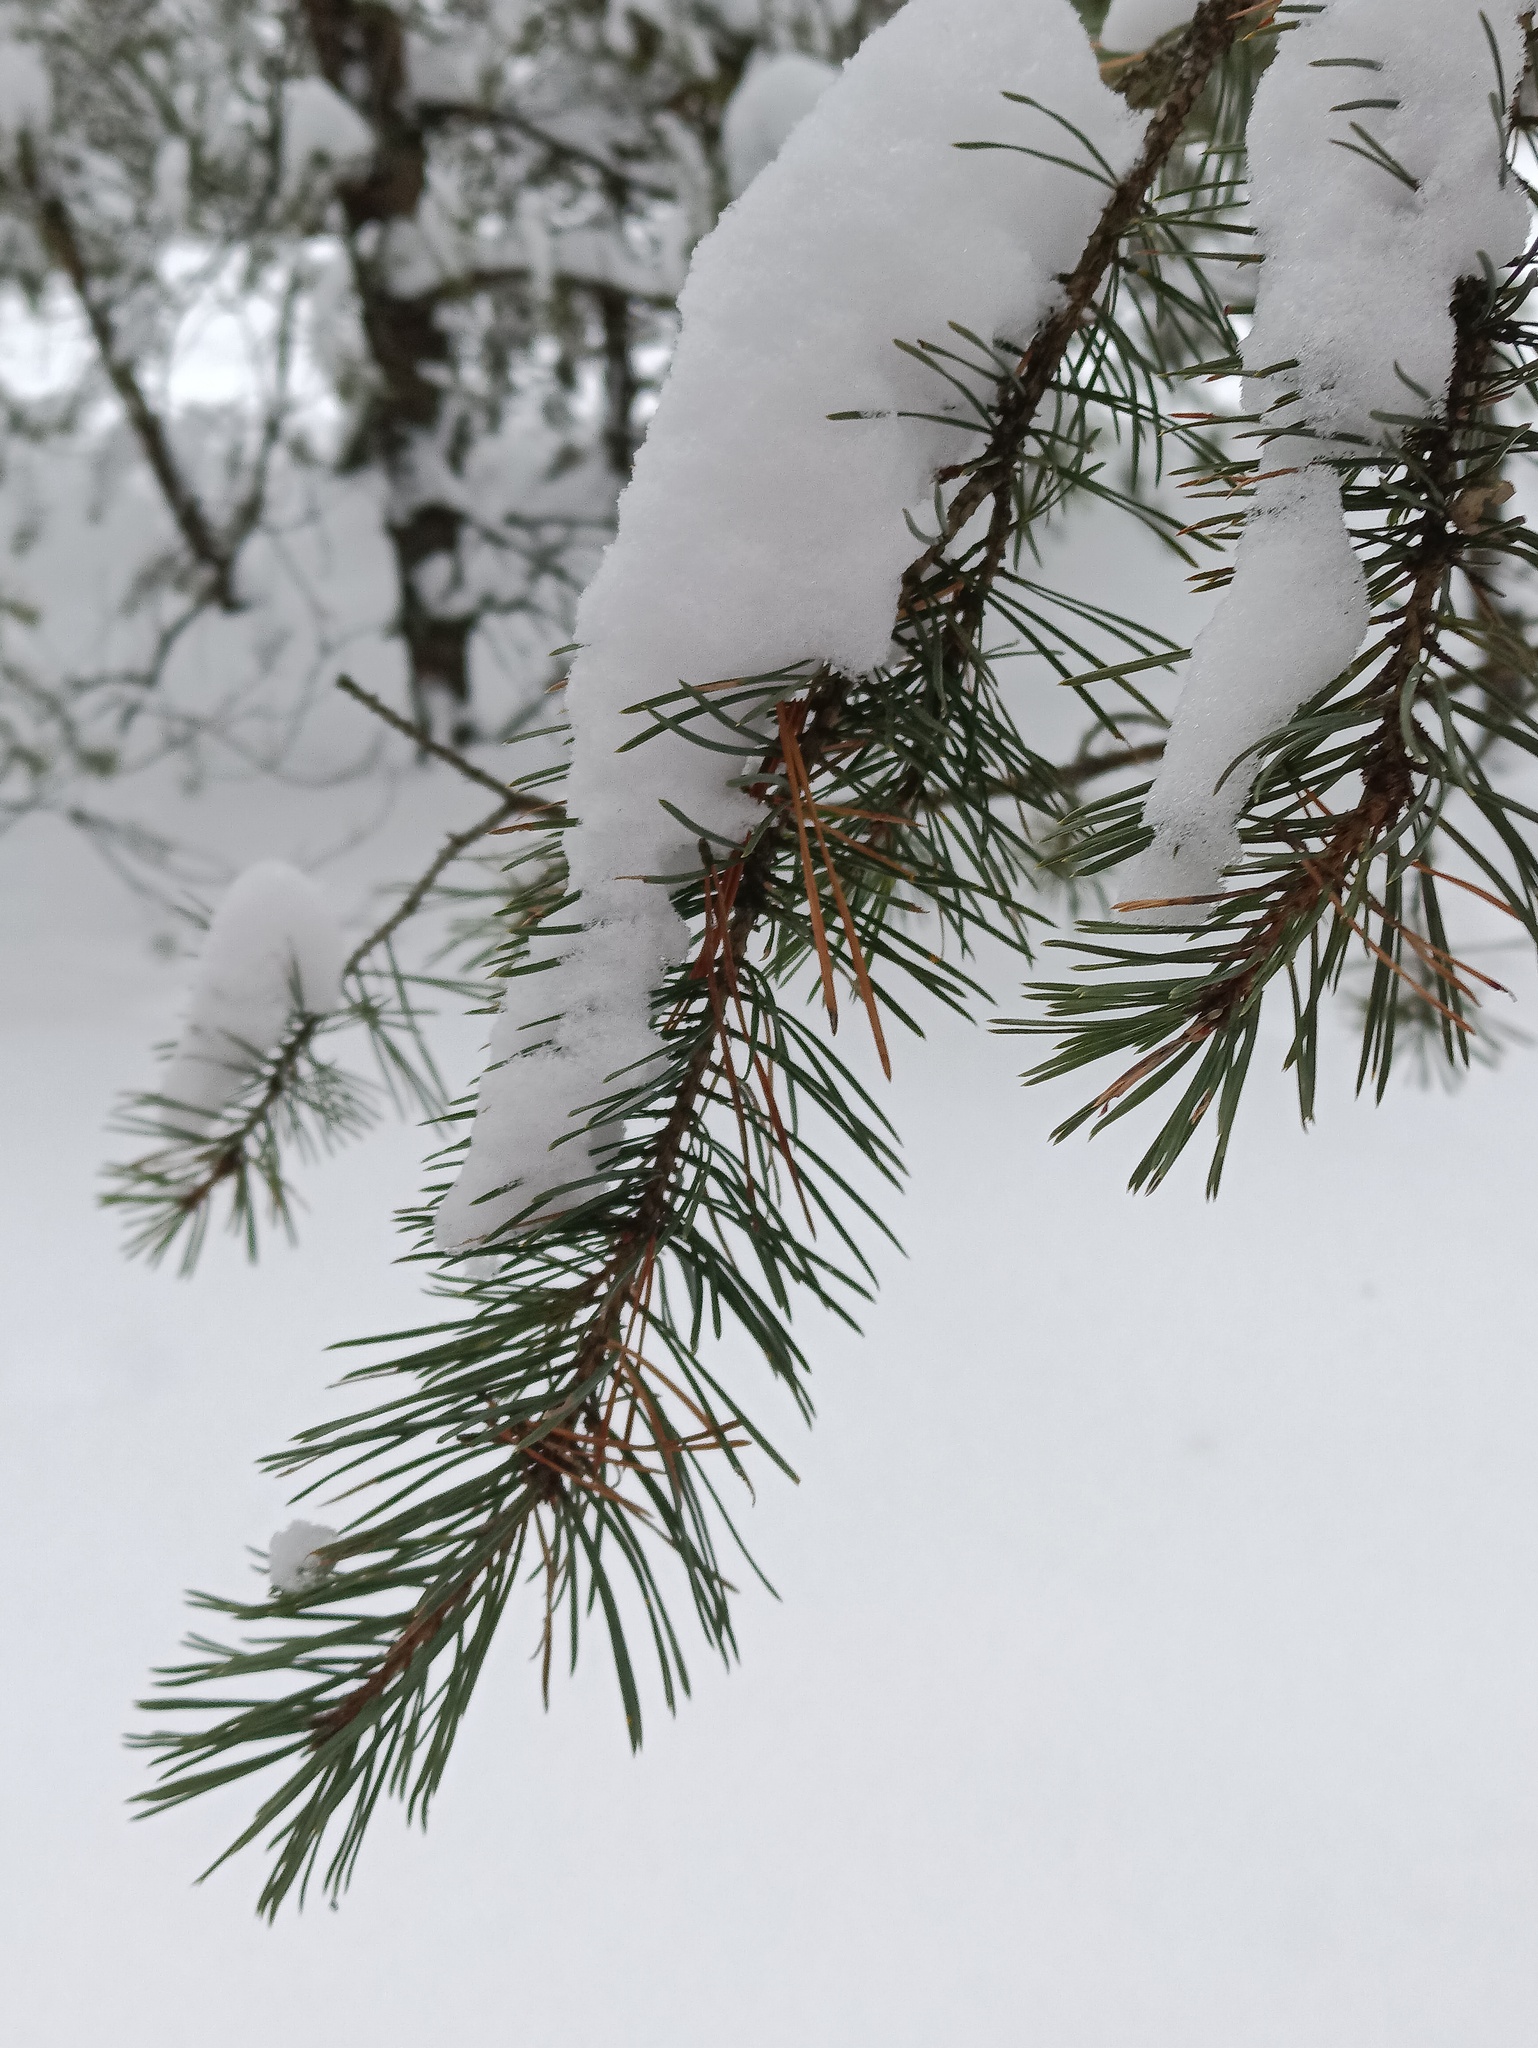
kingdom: Plantae
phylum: Tracheophyta
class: Pinopsida
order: Pinales
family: Pinaceae
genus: Pinus
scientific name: Pinus sylvestris
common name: Scots pine
